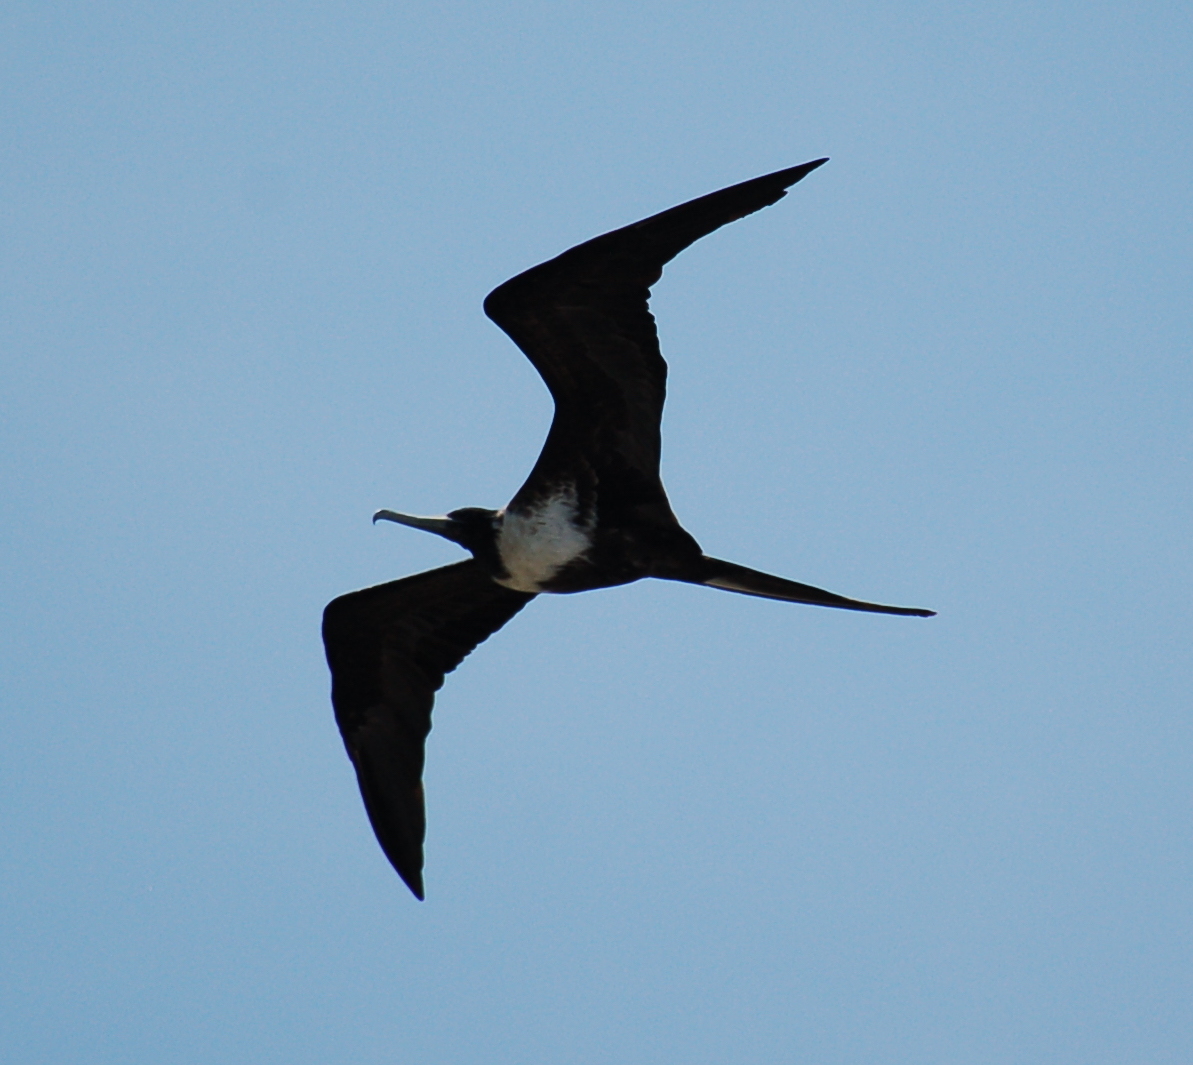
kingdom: Animalia
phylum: Chordata
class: Aves
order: Suliformes
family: Fregatidae
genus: Fregata
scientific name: Fregata magnificens
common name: Magnificent frigatebird
